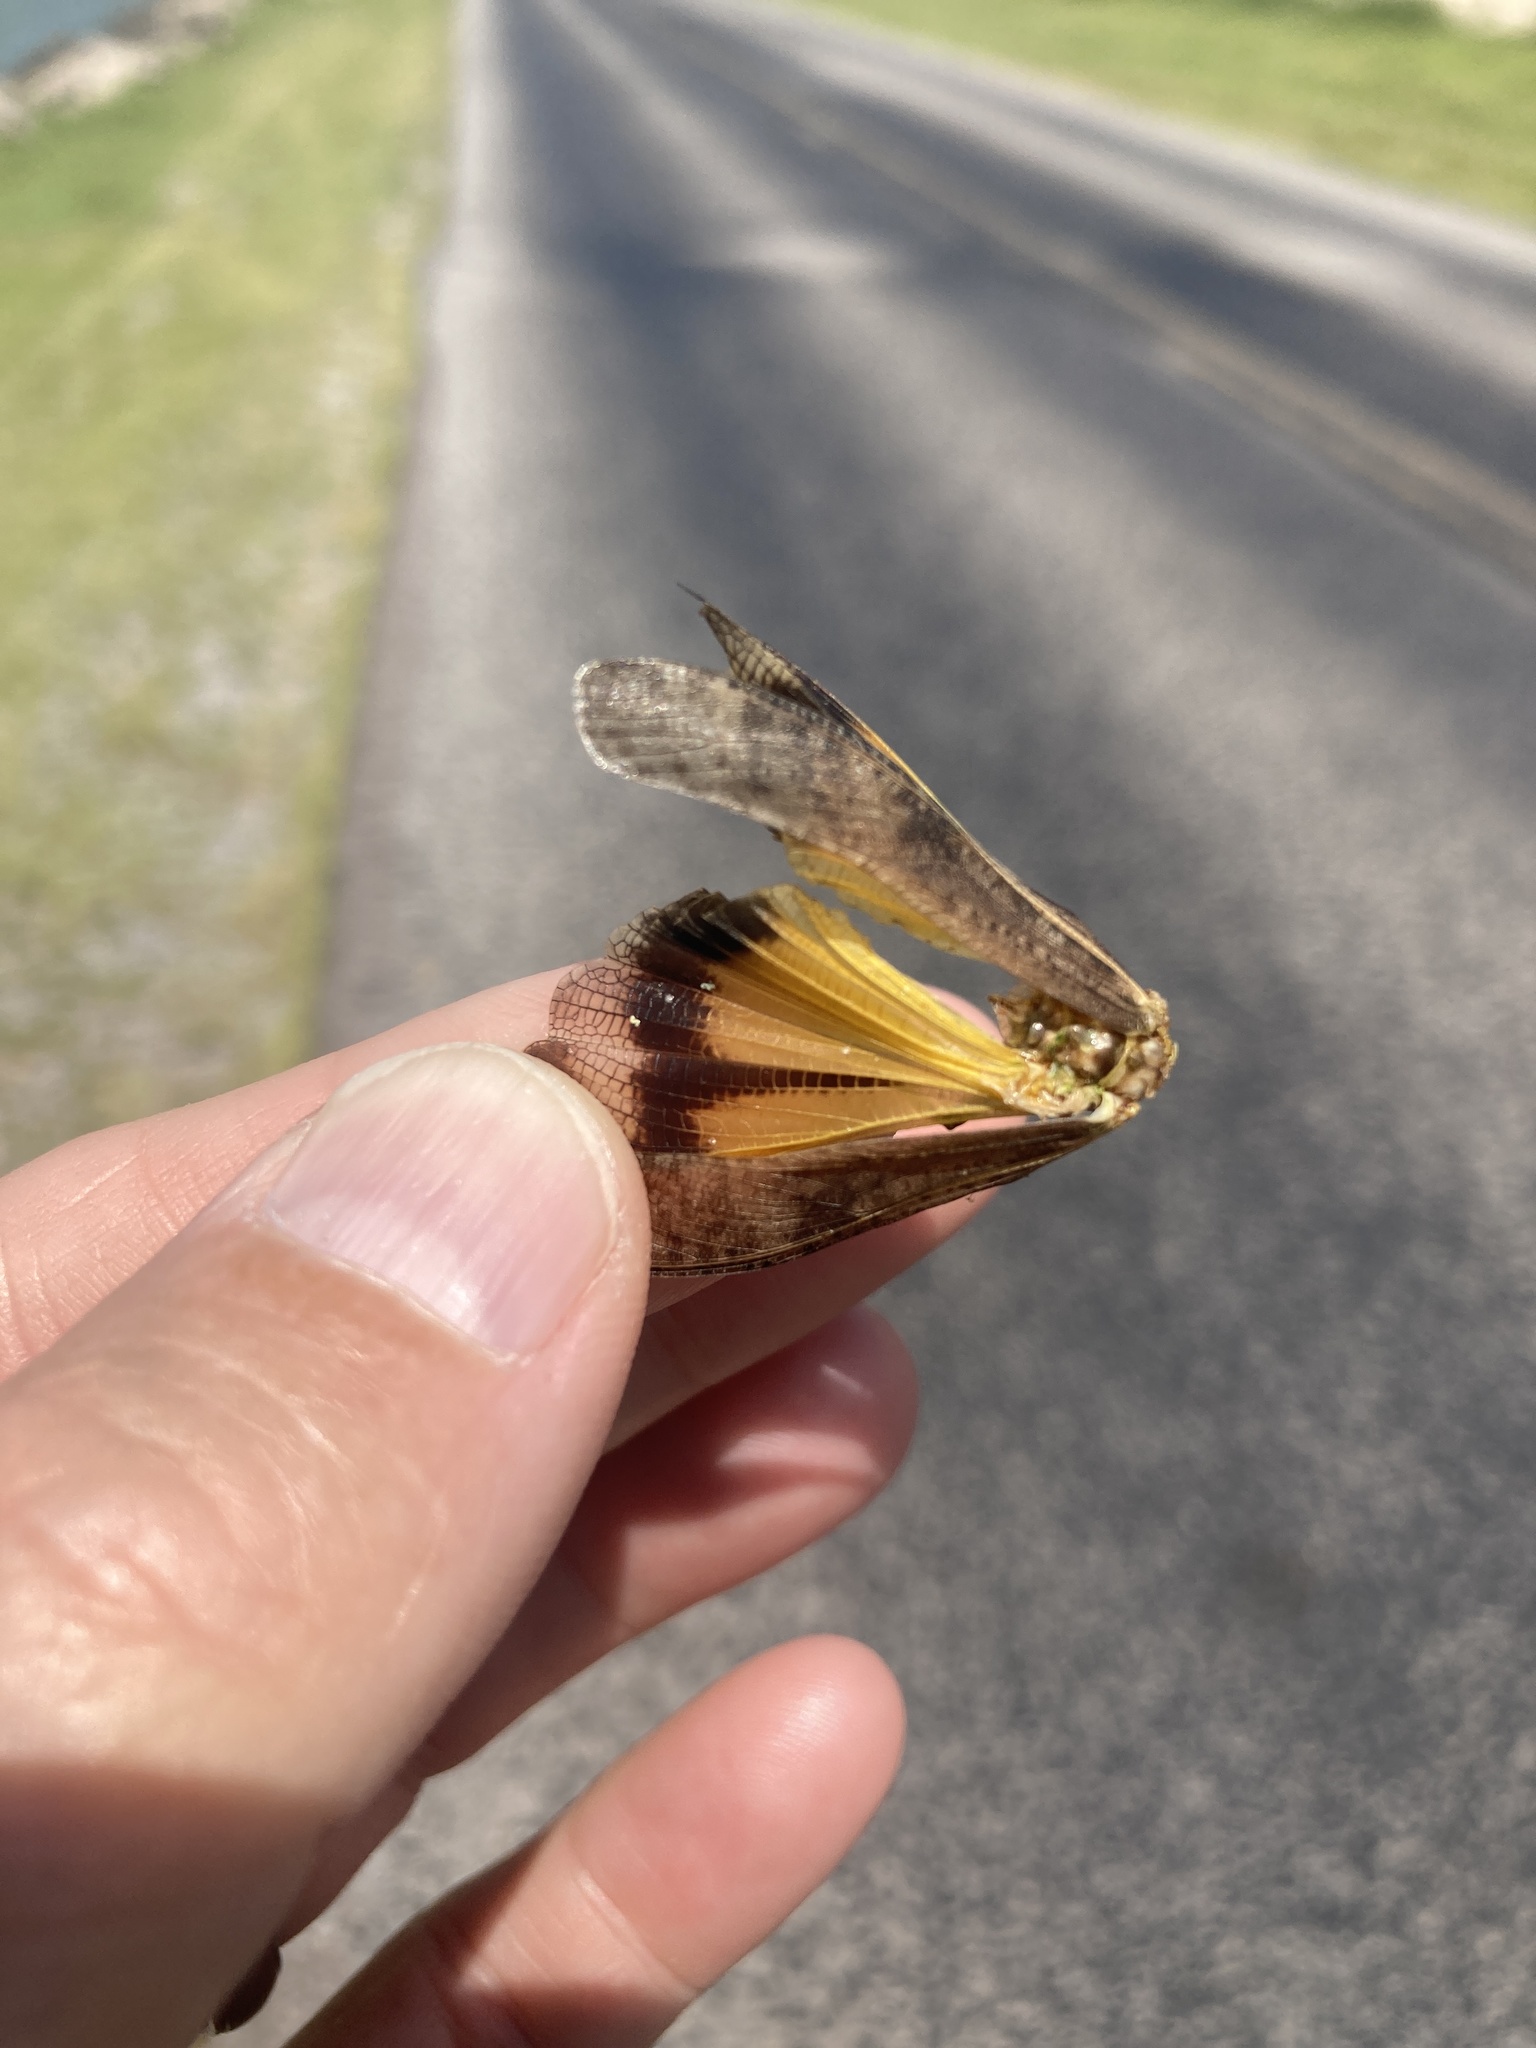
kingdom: Animalia
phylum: Arthropoda
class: Insecta
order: Orthoptera
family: Acrididae
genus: Arphia
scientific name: Arphia simplex
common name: Plains yellow-winged grasshopper
